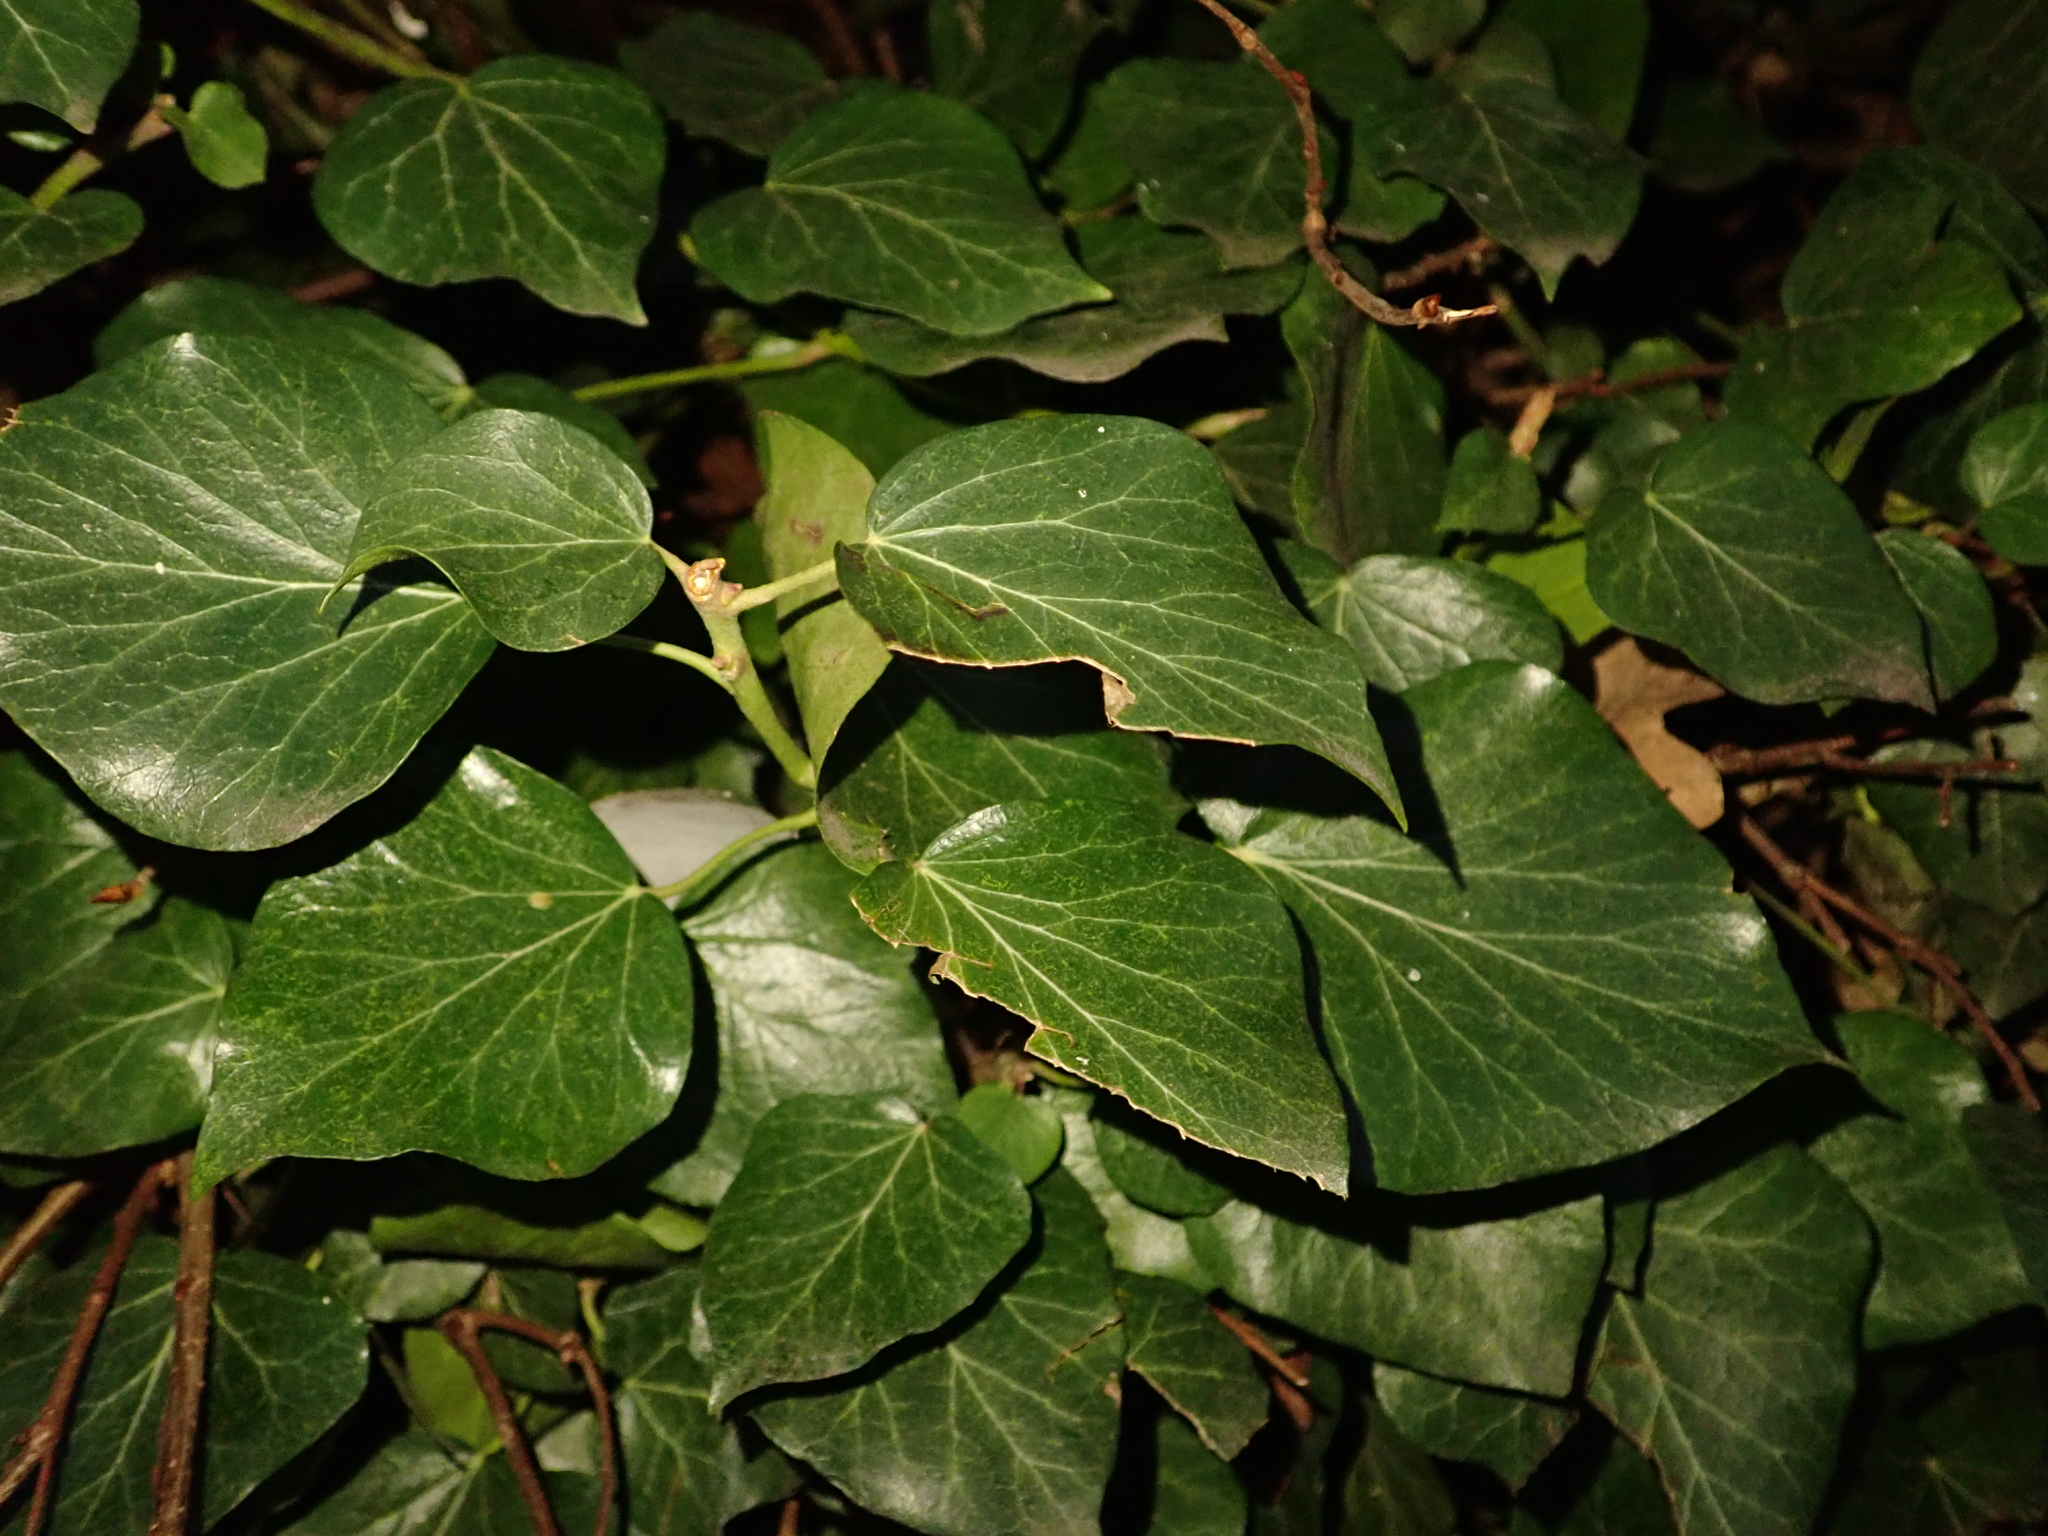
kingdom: Plantae
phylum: Tracheophyta
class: Magnoliopsida
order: Apiales
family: Araliaceae
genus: Hedera
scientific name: Hedera helix
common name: Ivy
